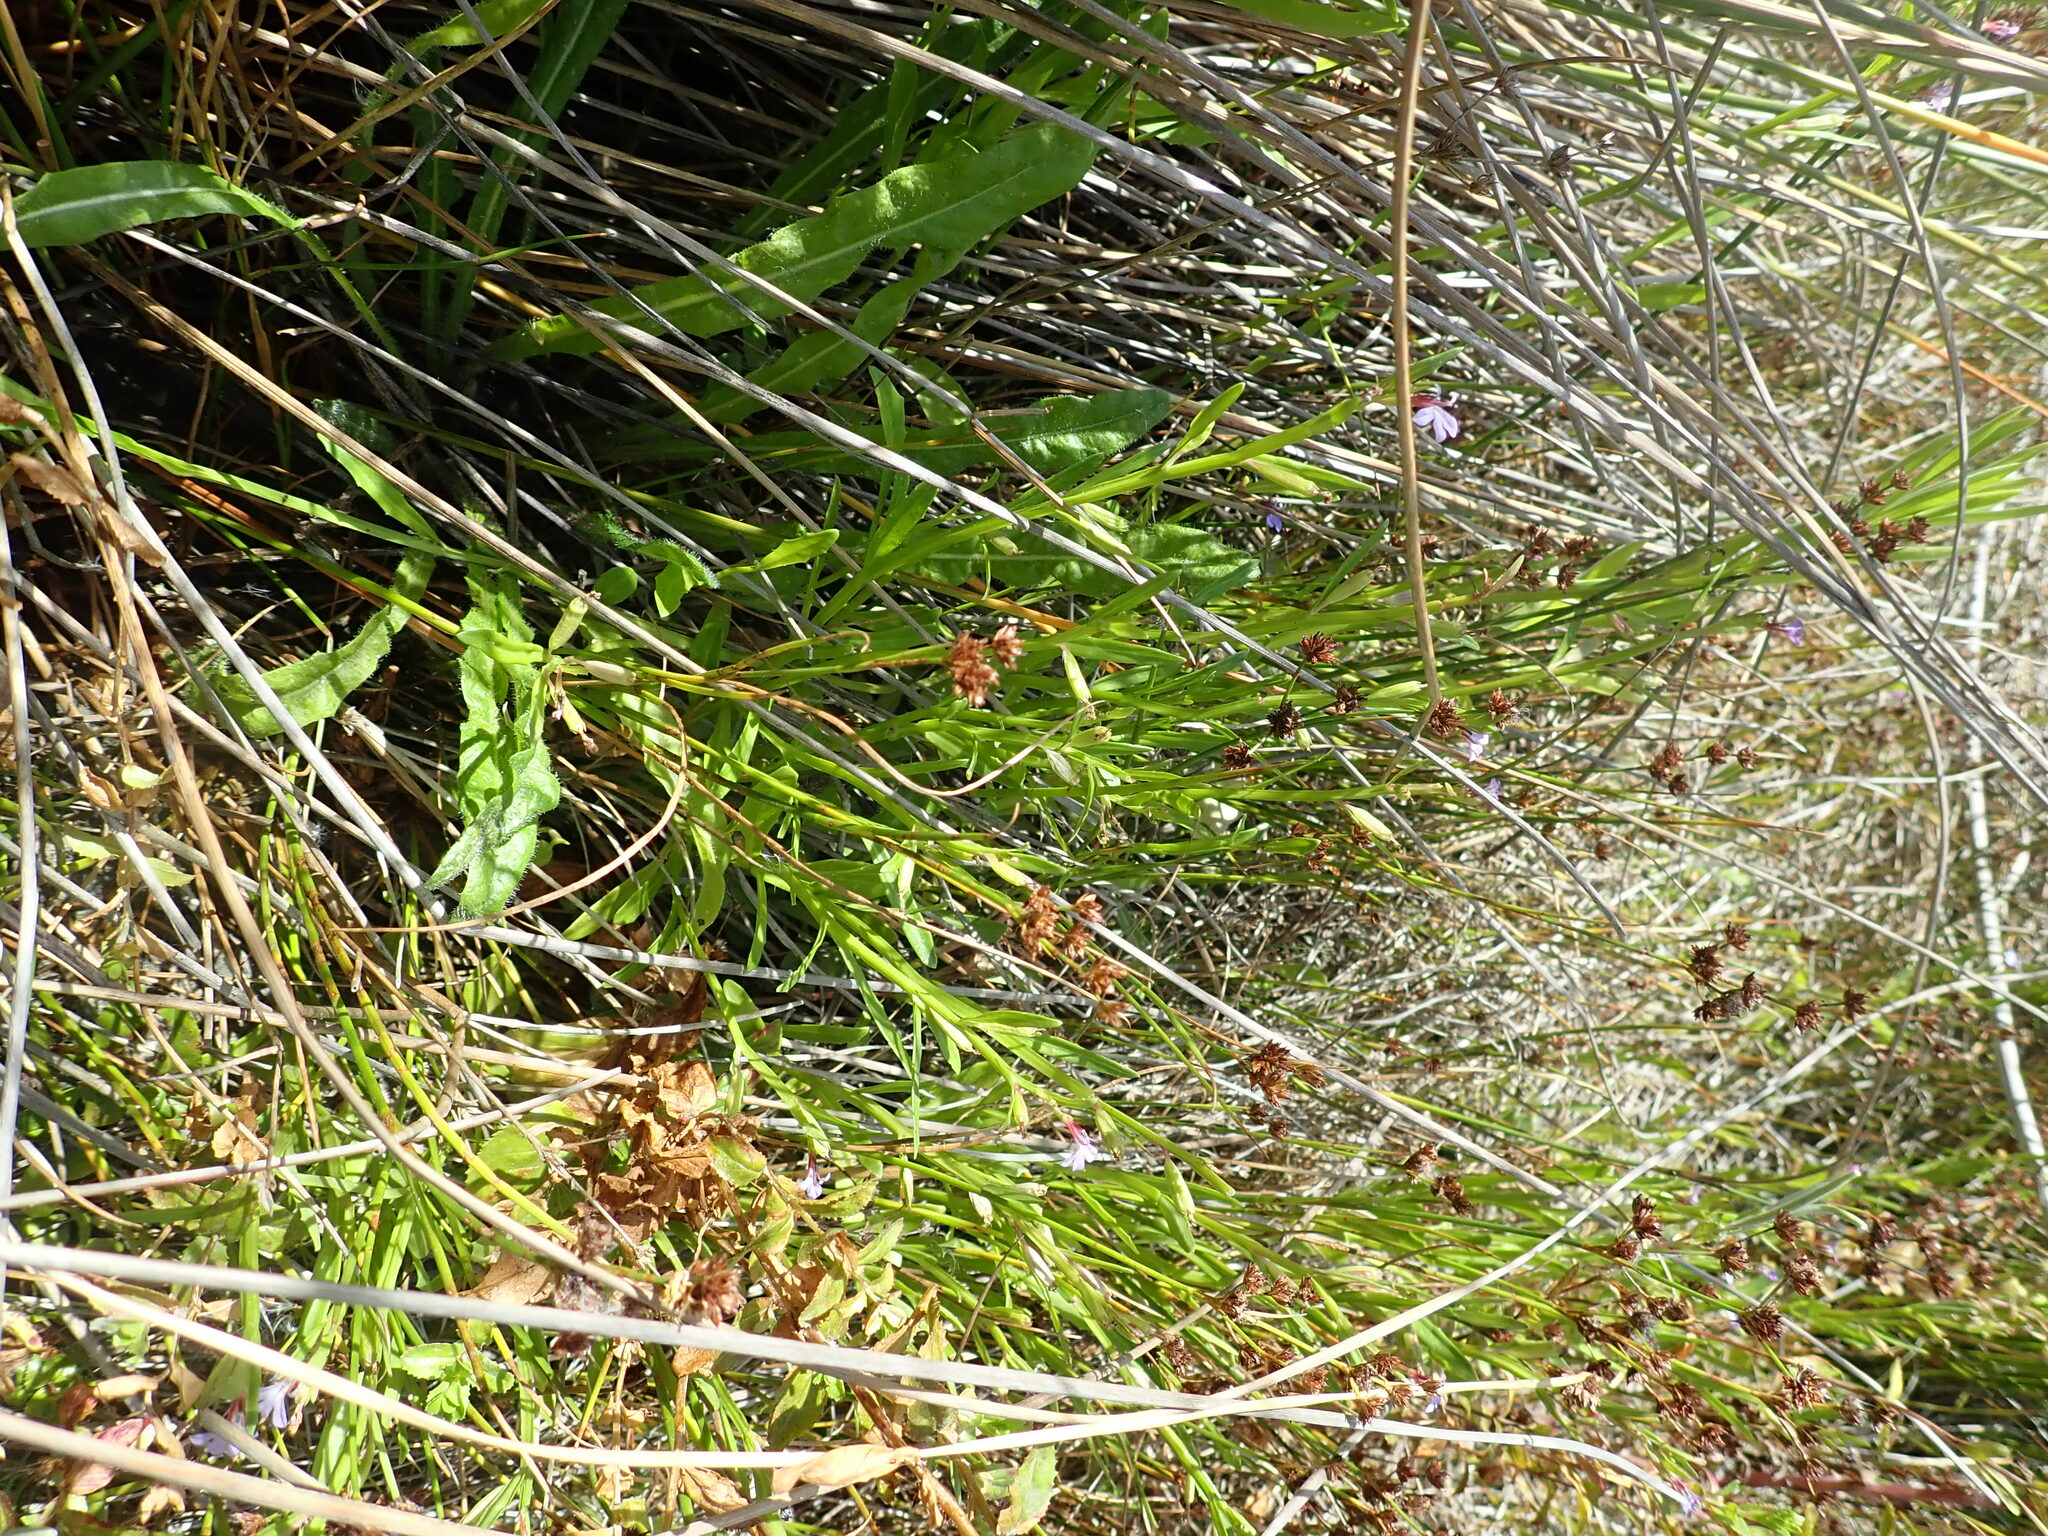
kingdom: Plantae
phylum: Tracheophyta
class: Magnoliopsida
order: Asterales
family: Campanulaceae
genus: Lobelia
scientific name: Lobelia anceps
